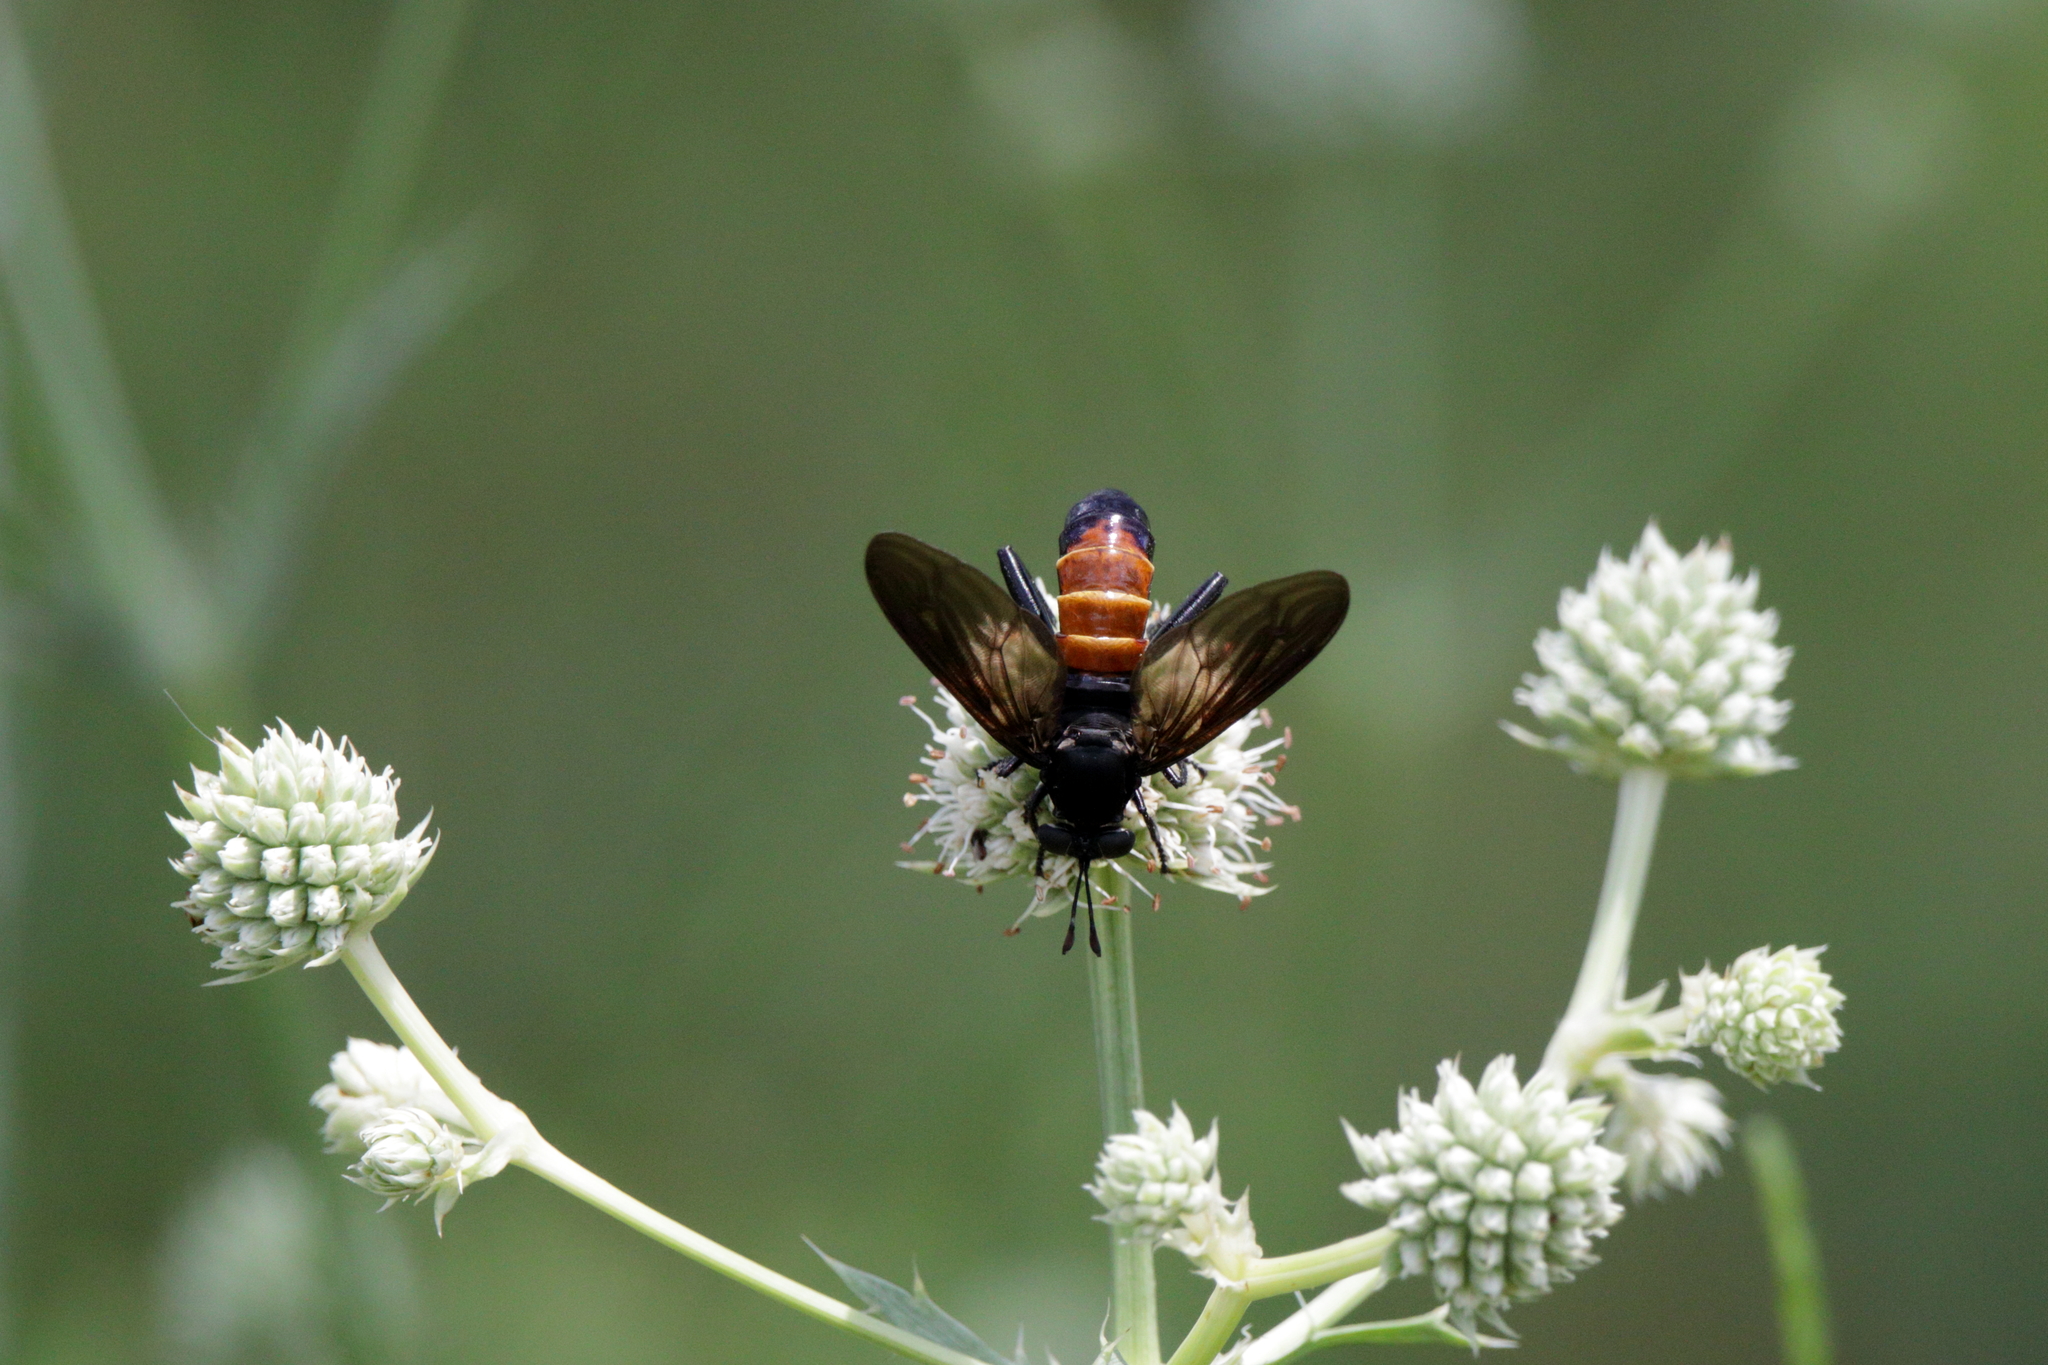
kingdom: Animalia
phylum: Arthropoda
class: Insecta
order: Diptera
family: Mydidae
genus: Mydas
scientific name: Mydas fulvifrons
